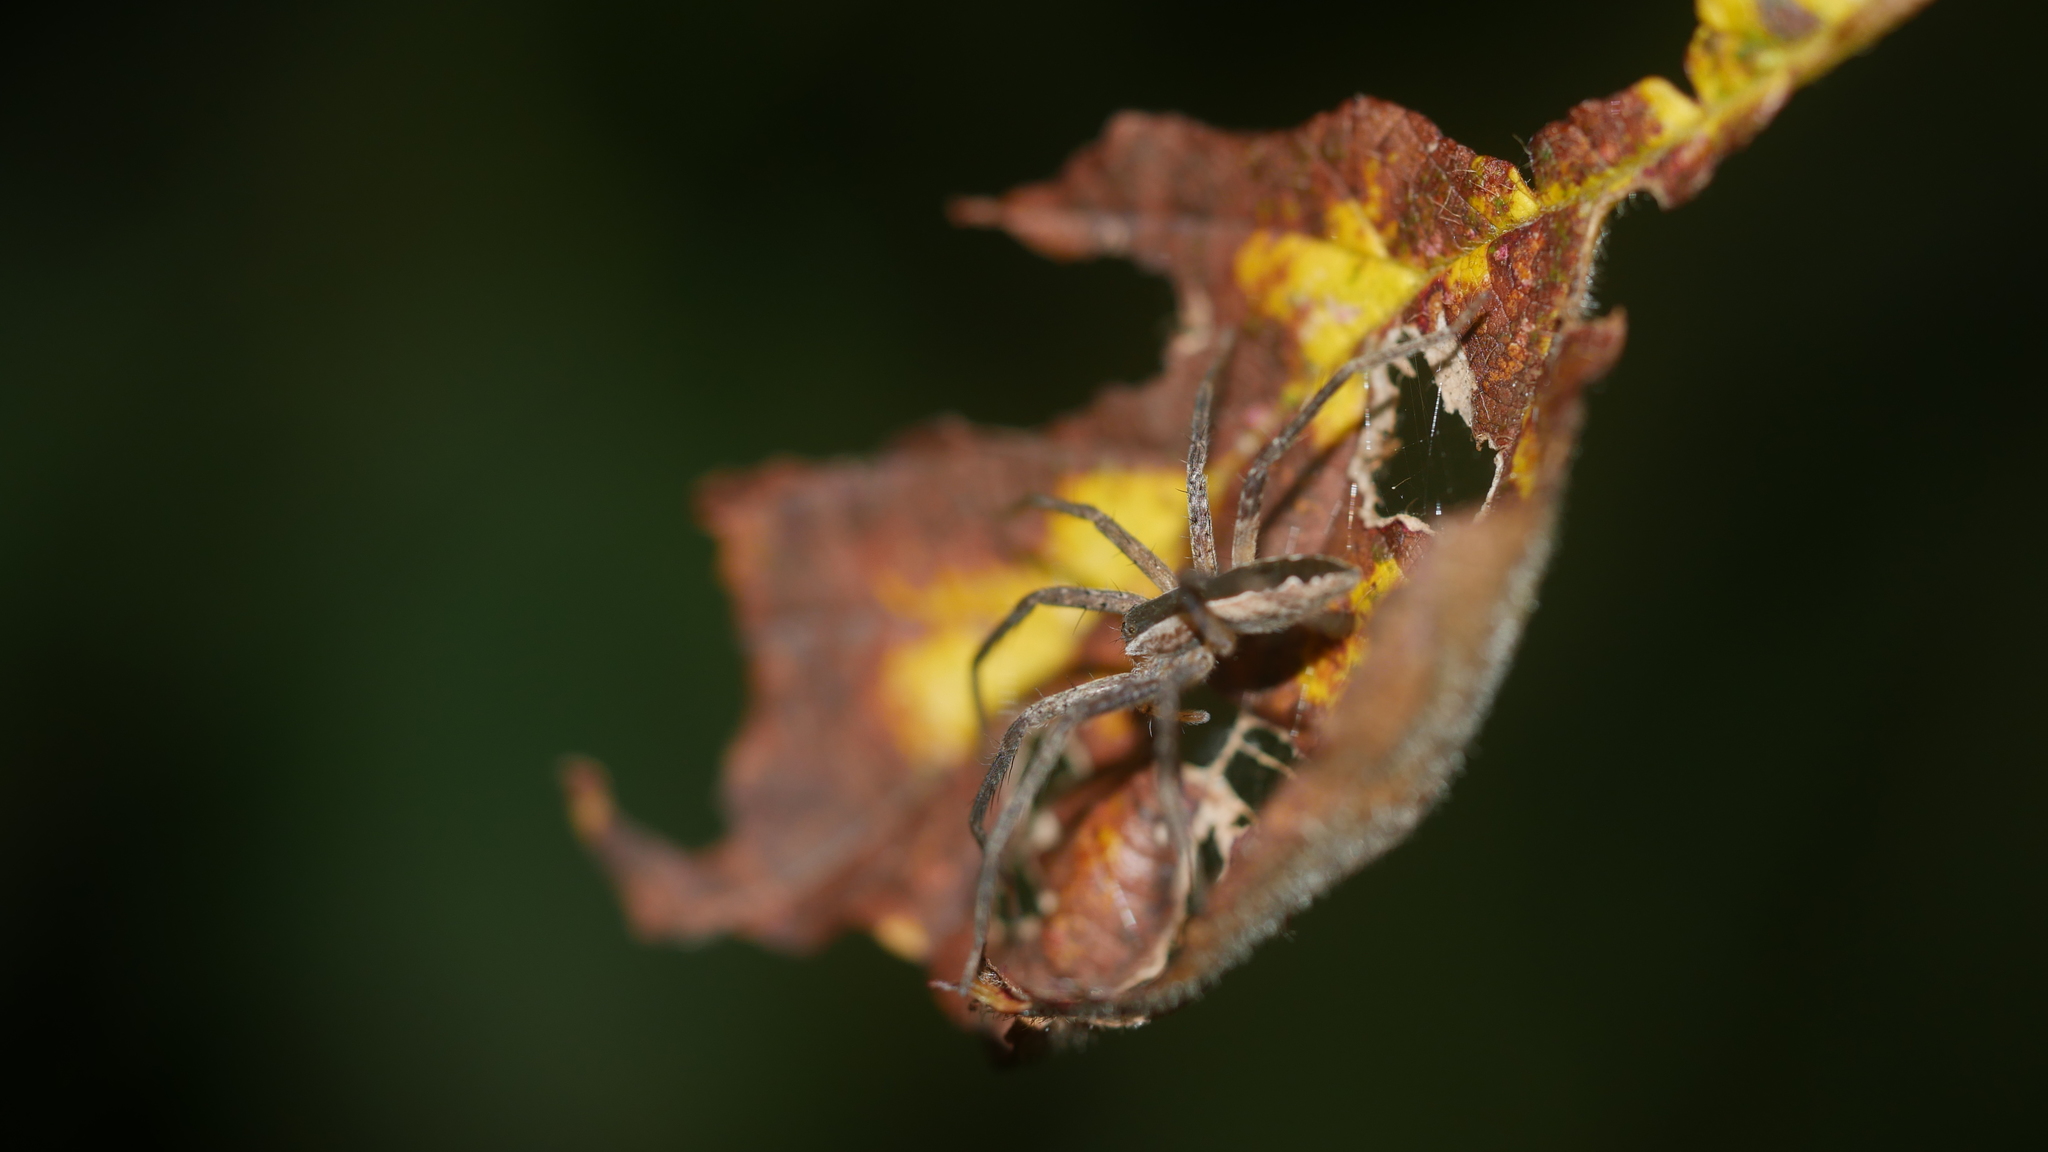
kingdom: Animalia
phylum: Arthropoda
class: Arachnida
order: Araneae
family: Pisauridae
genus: Pisaurina
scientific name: Pisaurina mira
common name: American nursery web spider
